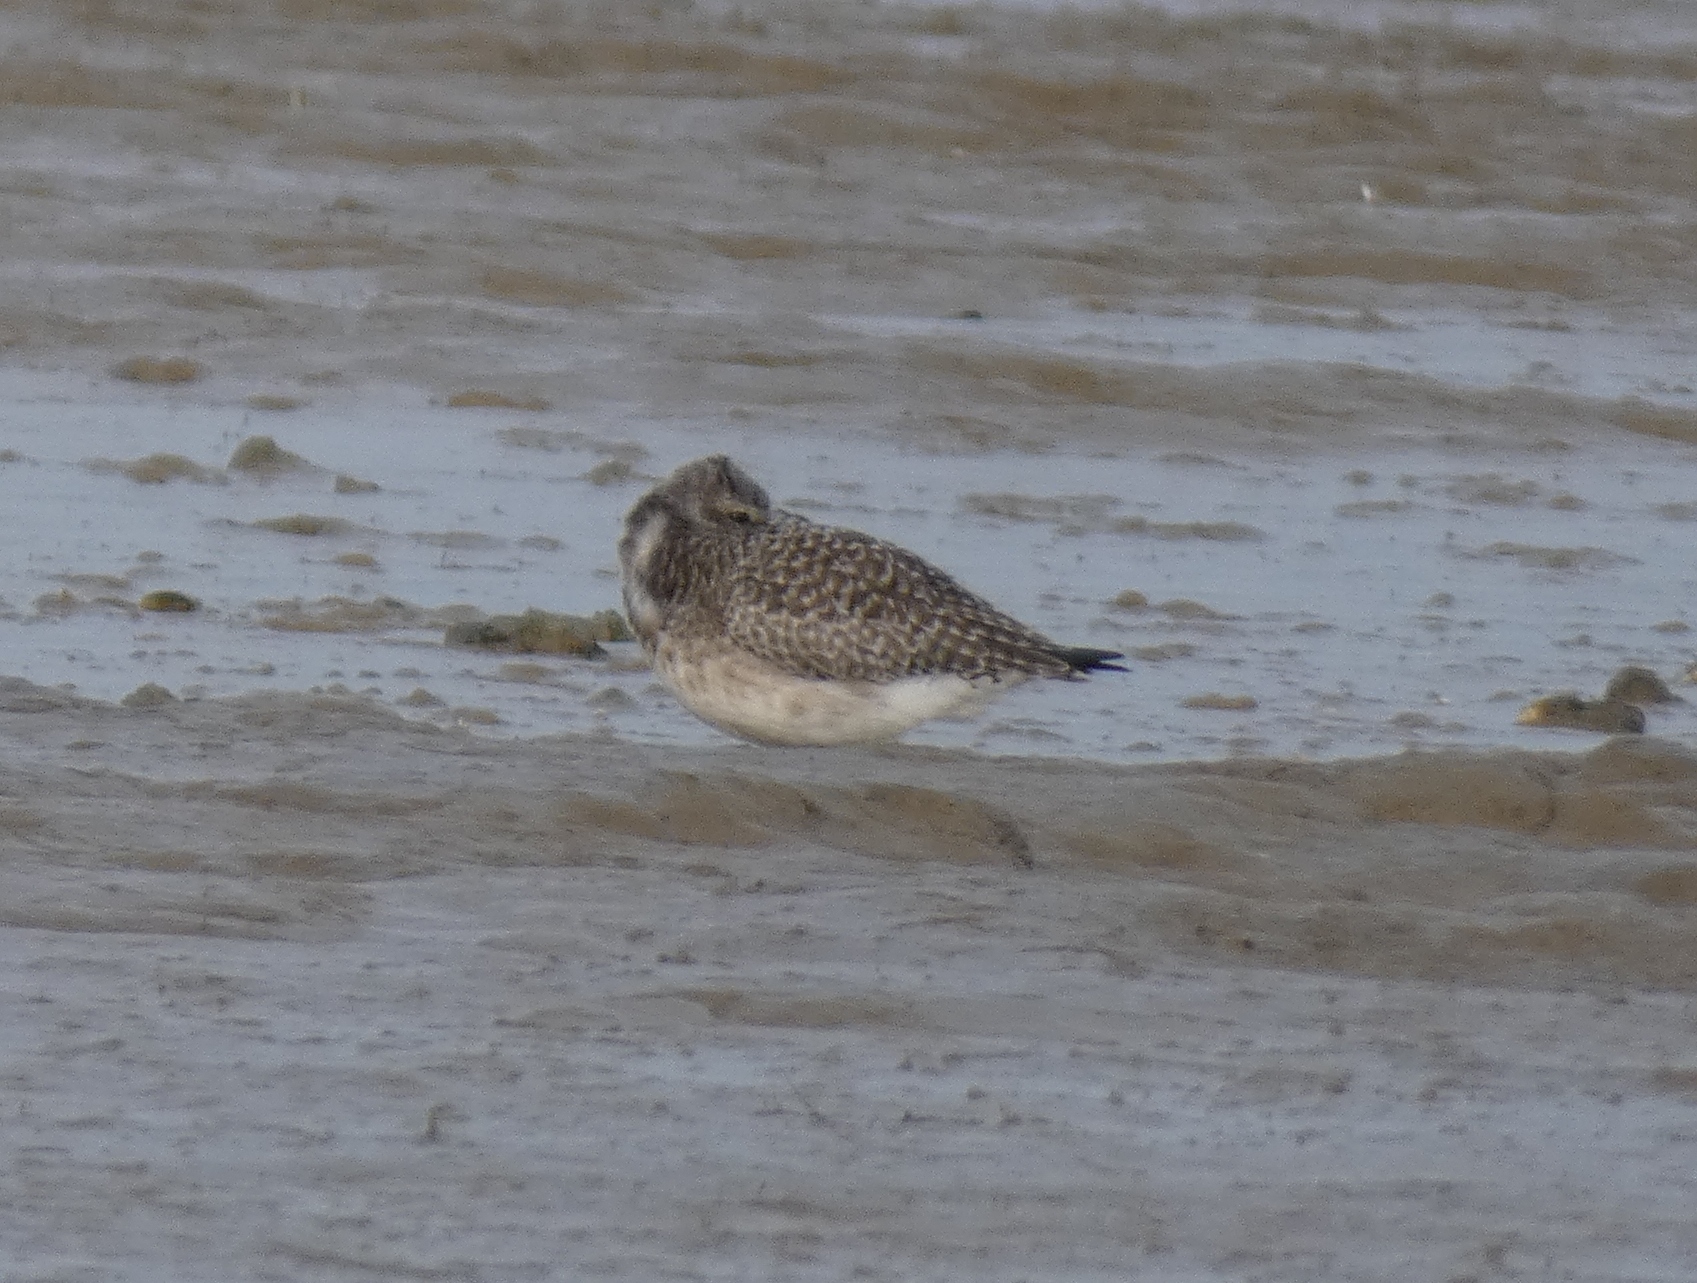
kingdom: Animalia
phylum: Chordata
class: Aves
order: Charadriiformes
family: Charadriidae
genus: Pluvialis
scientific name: Pluvialis squatarola
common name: Grey plover
